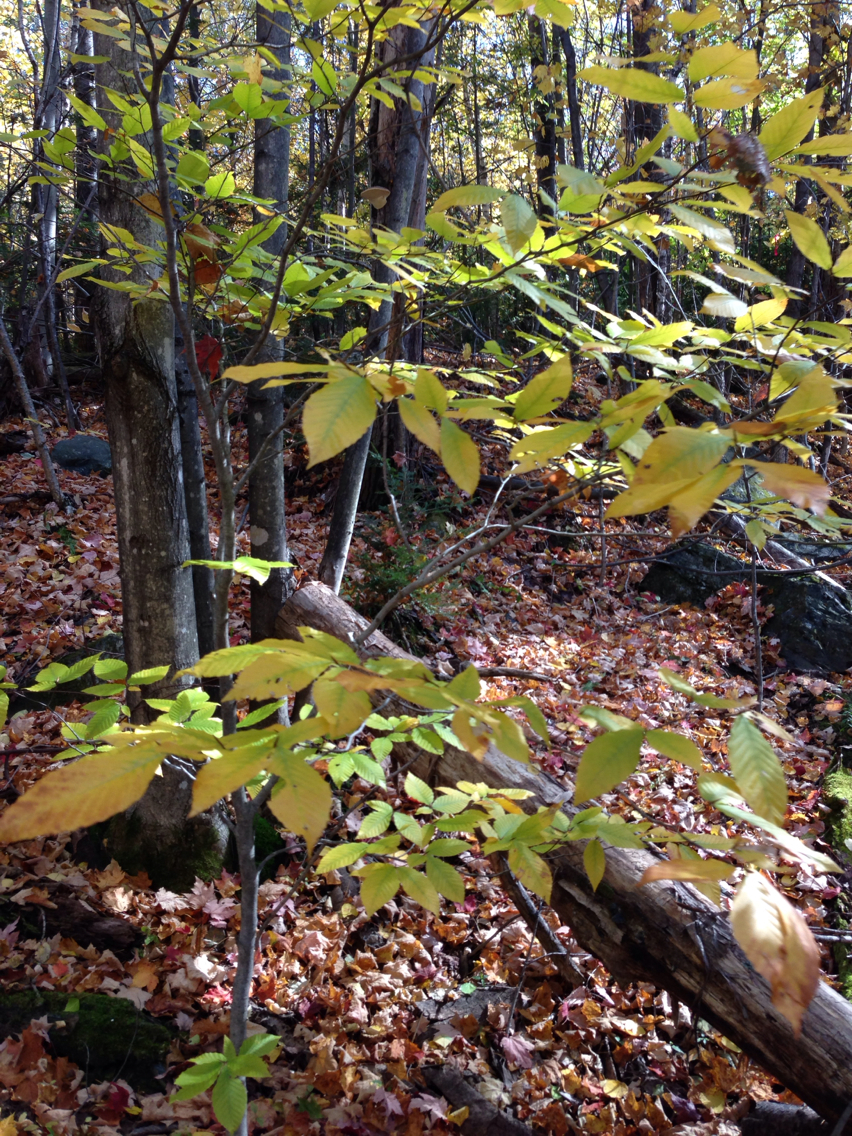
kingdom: Plantae
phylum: Tracheophyta
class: Magnoliopsida
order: Fagales
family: Fagaceae
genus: Fagus
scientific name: Fagus grandifolia
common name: American beech
